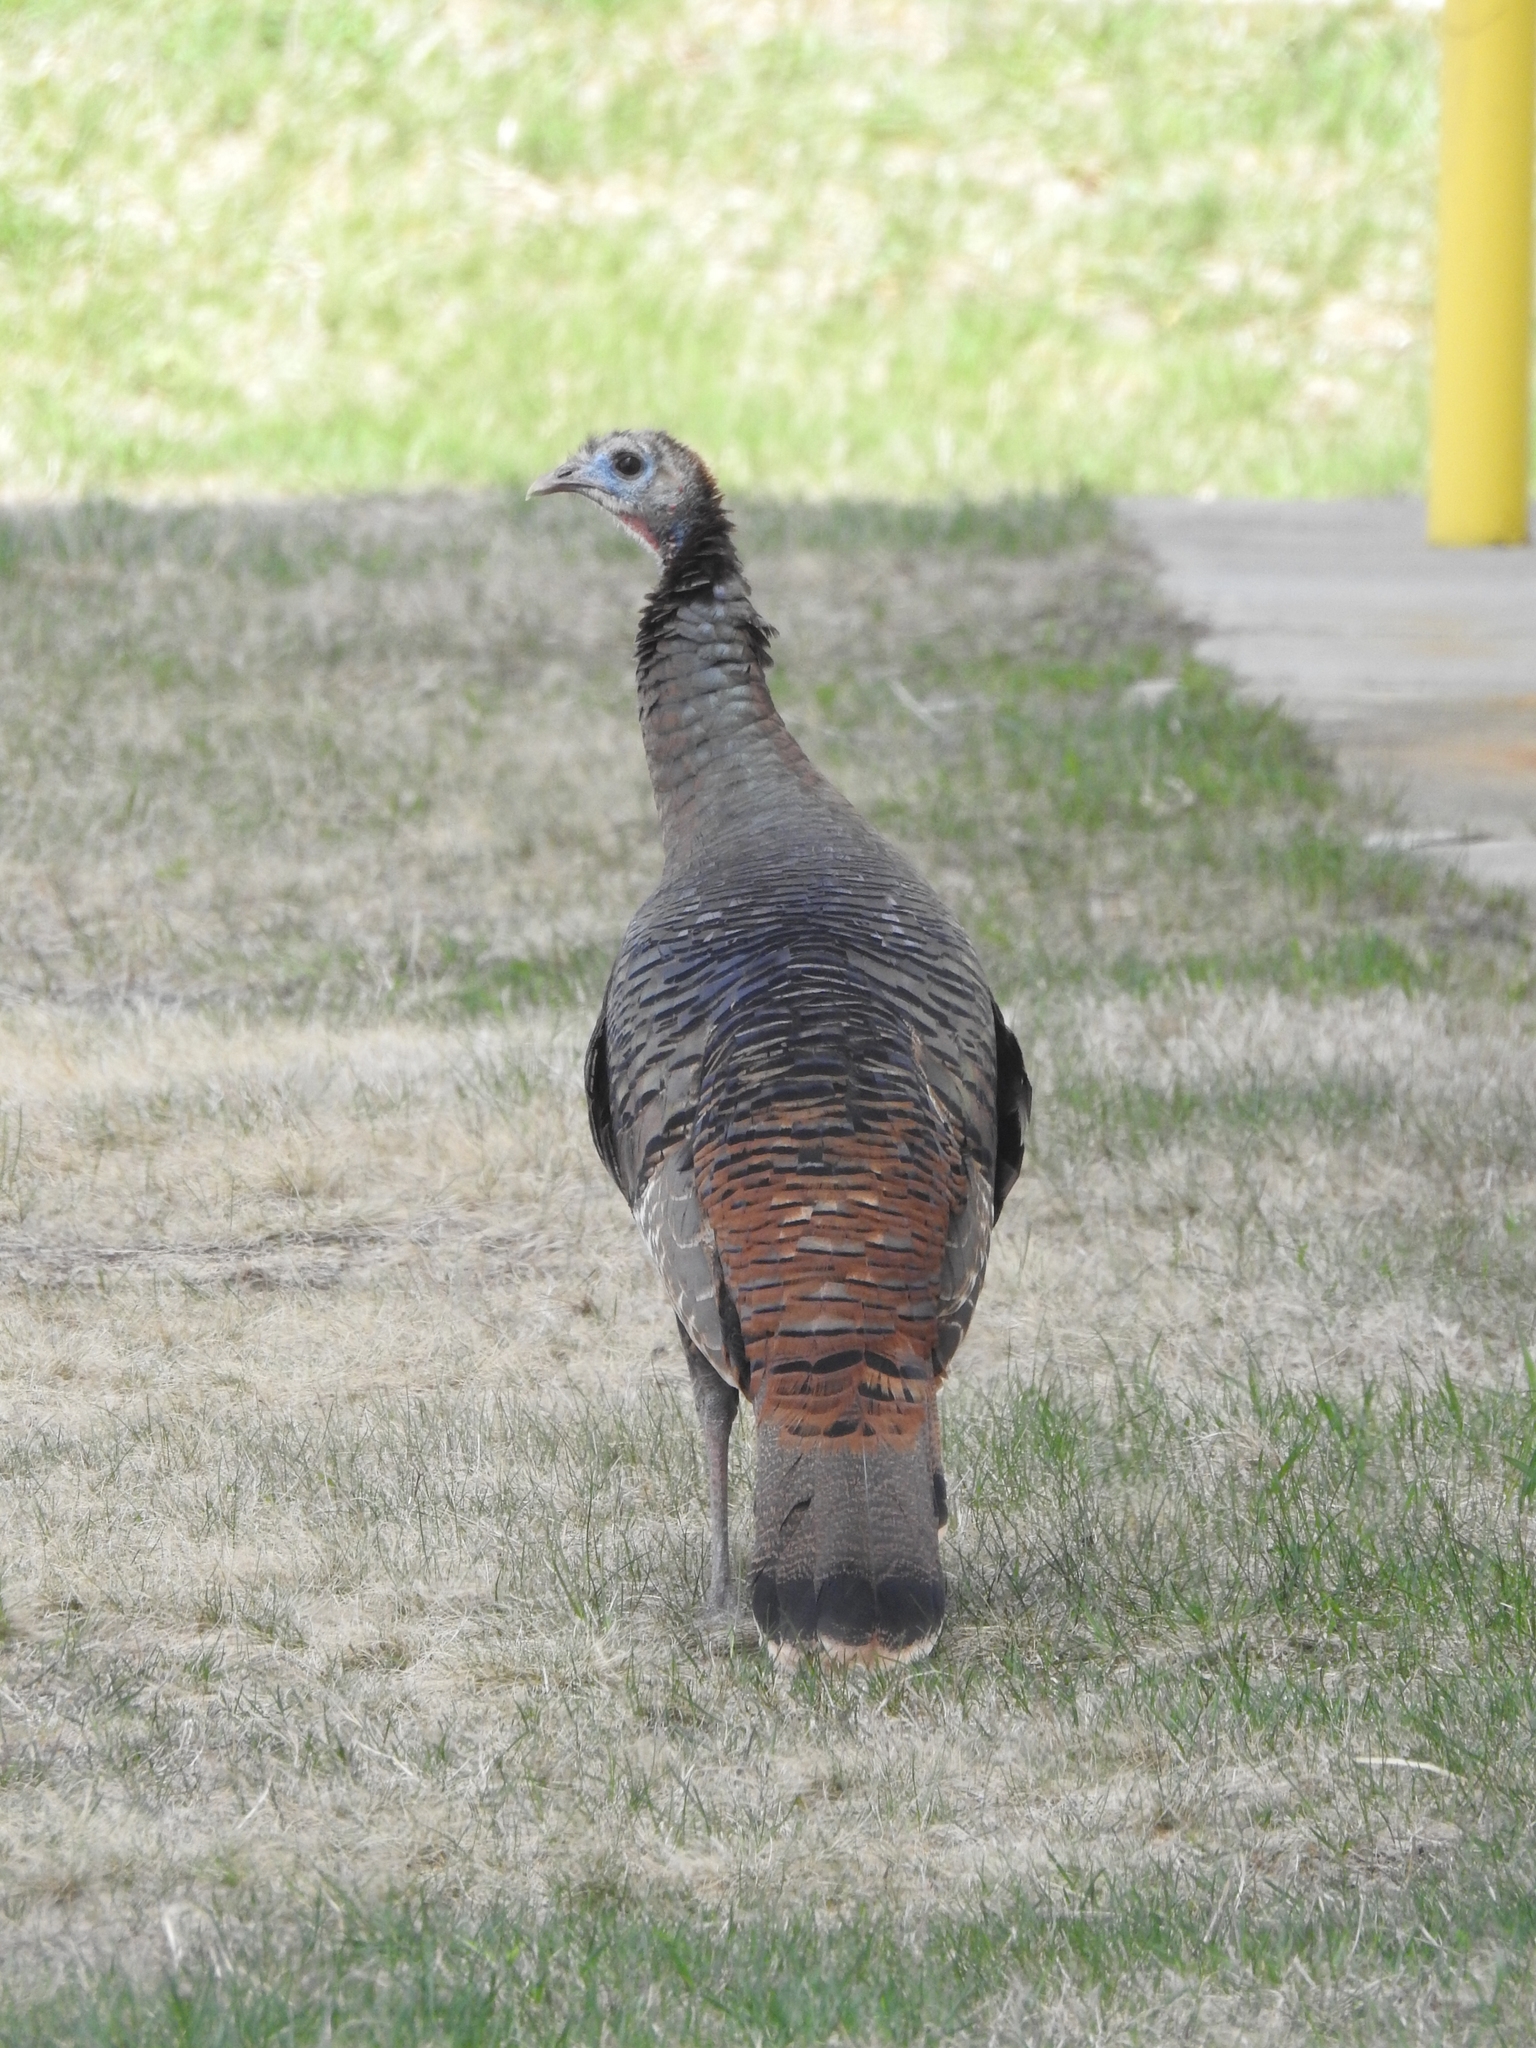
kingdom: Animalia
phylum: Chordata
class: Aves
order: Galliformes
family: Phasianidae
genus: Meleagris
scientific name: Meleagris gallopavo
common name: Wild turkey
